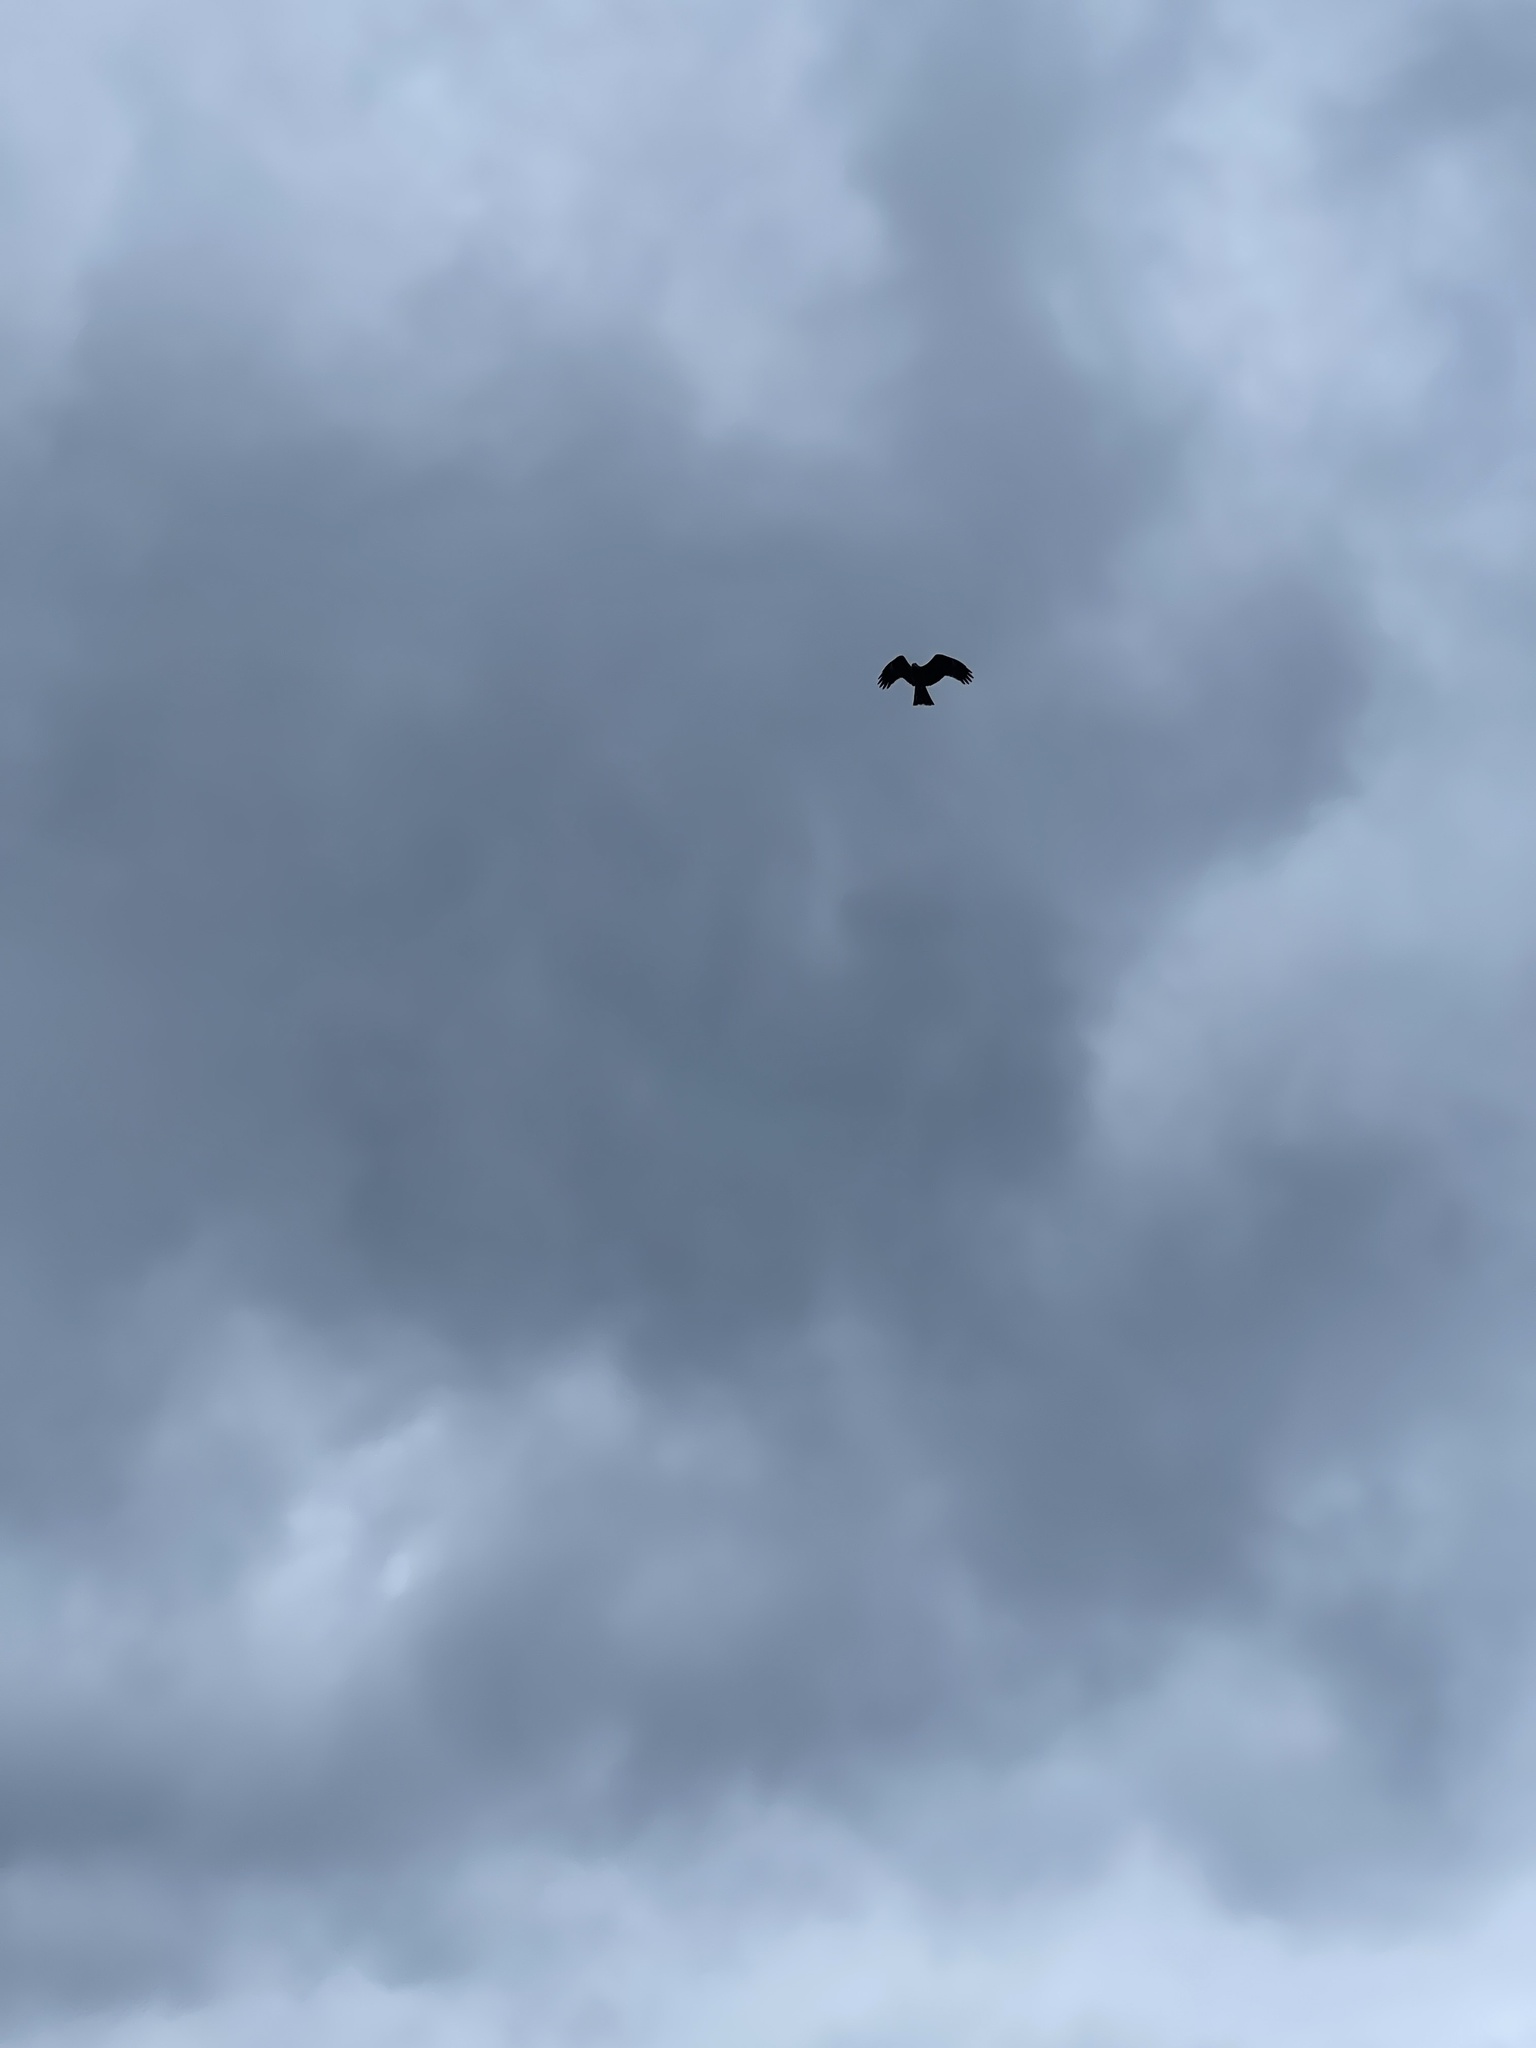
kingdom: Animalia
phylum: Chordata
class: Aves
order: Accipitriformes
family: Accipitridae
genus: Milvus
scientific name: Milvus migrans
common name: Black kite
